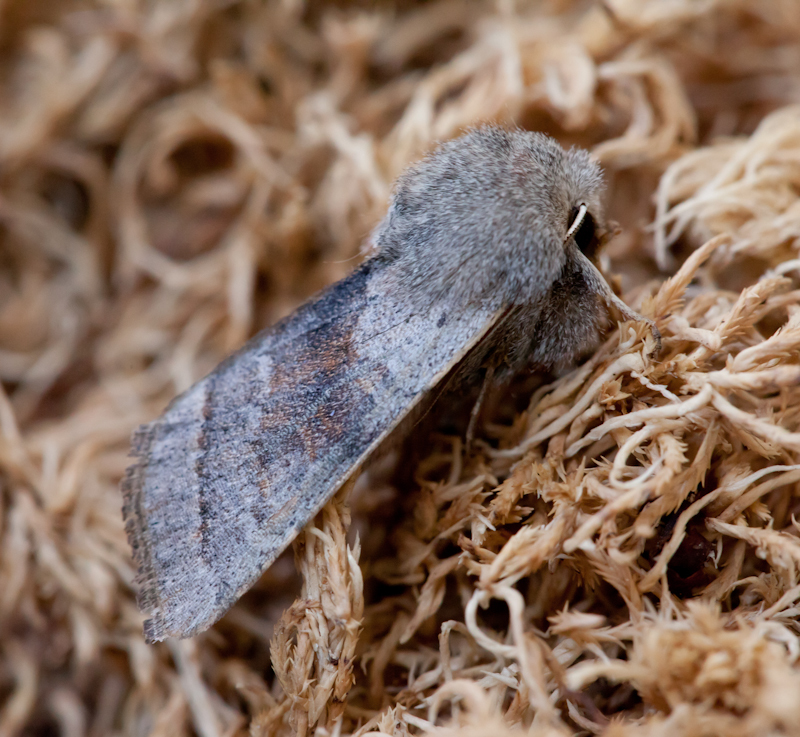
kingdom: Animalia
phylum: Arthropoda
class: Insecta
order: Lepidoptera
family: Noctuidae
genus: Orthosia
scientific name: Orthosia opima
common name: Northern drab
